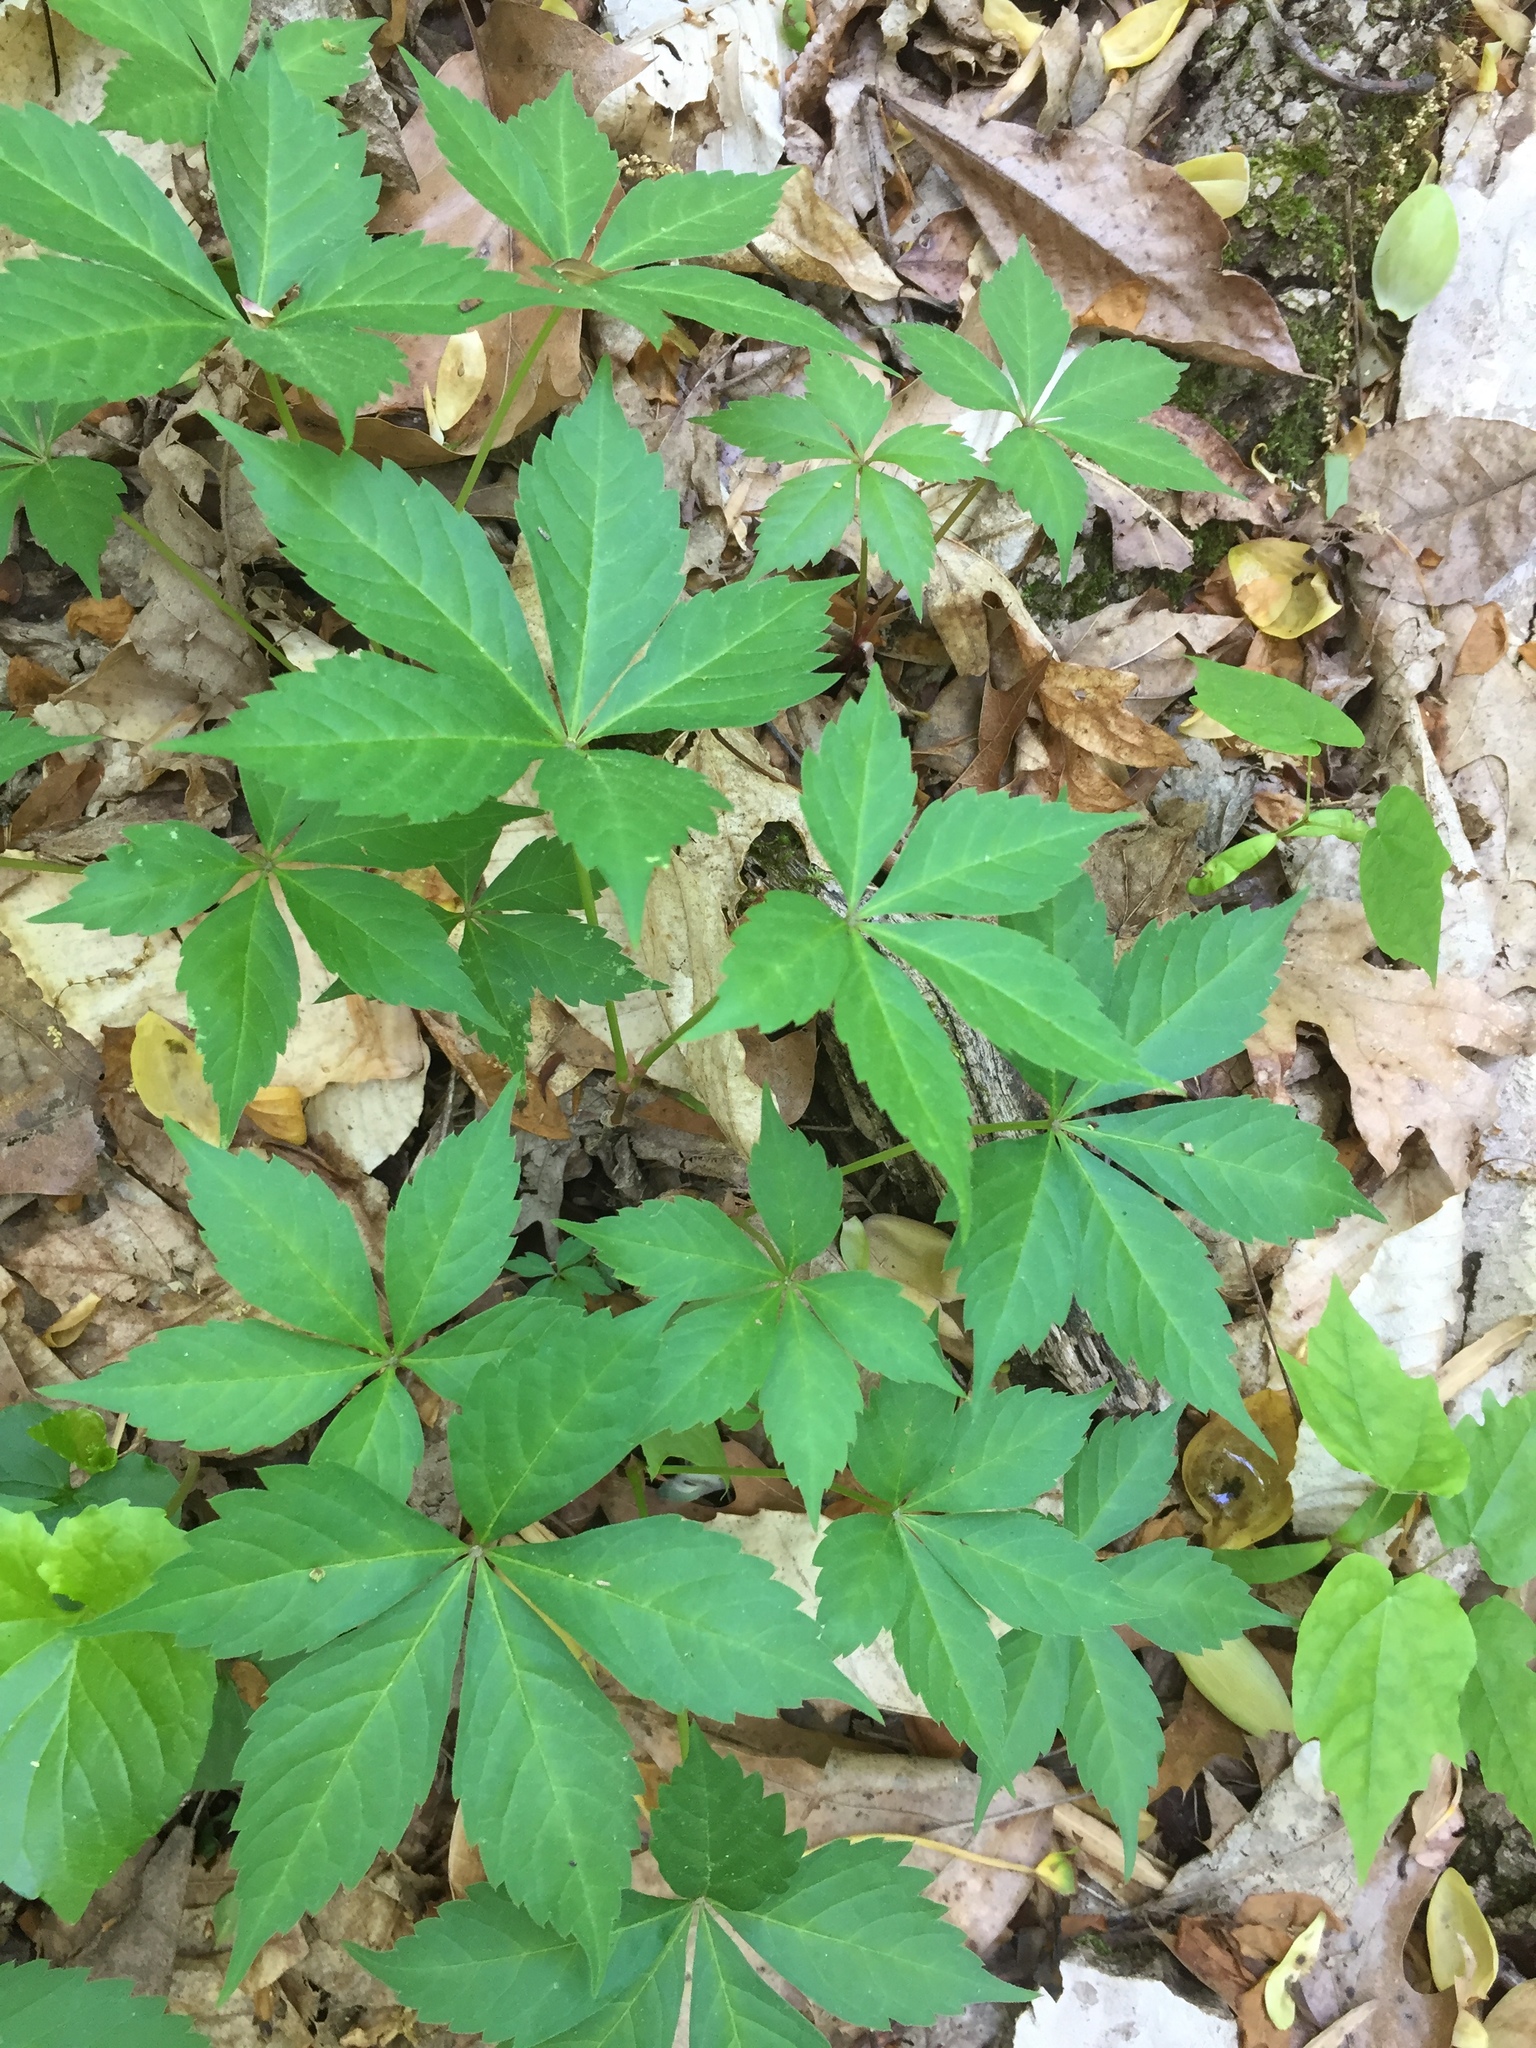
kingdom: Plantae
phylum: Tracheophyta
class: Magnoliopsida
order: Vitales
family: Vitaceae
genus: Parthenocissus
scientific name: Parthenocissus quinquefolia
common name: Virginia-creeper
